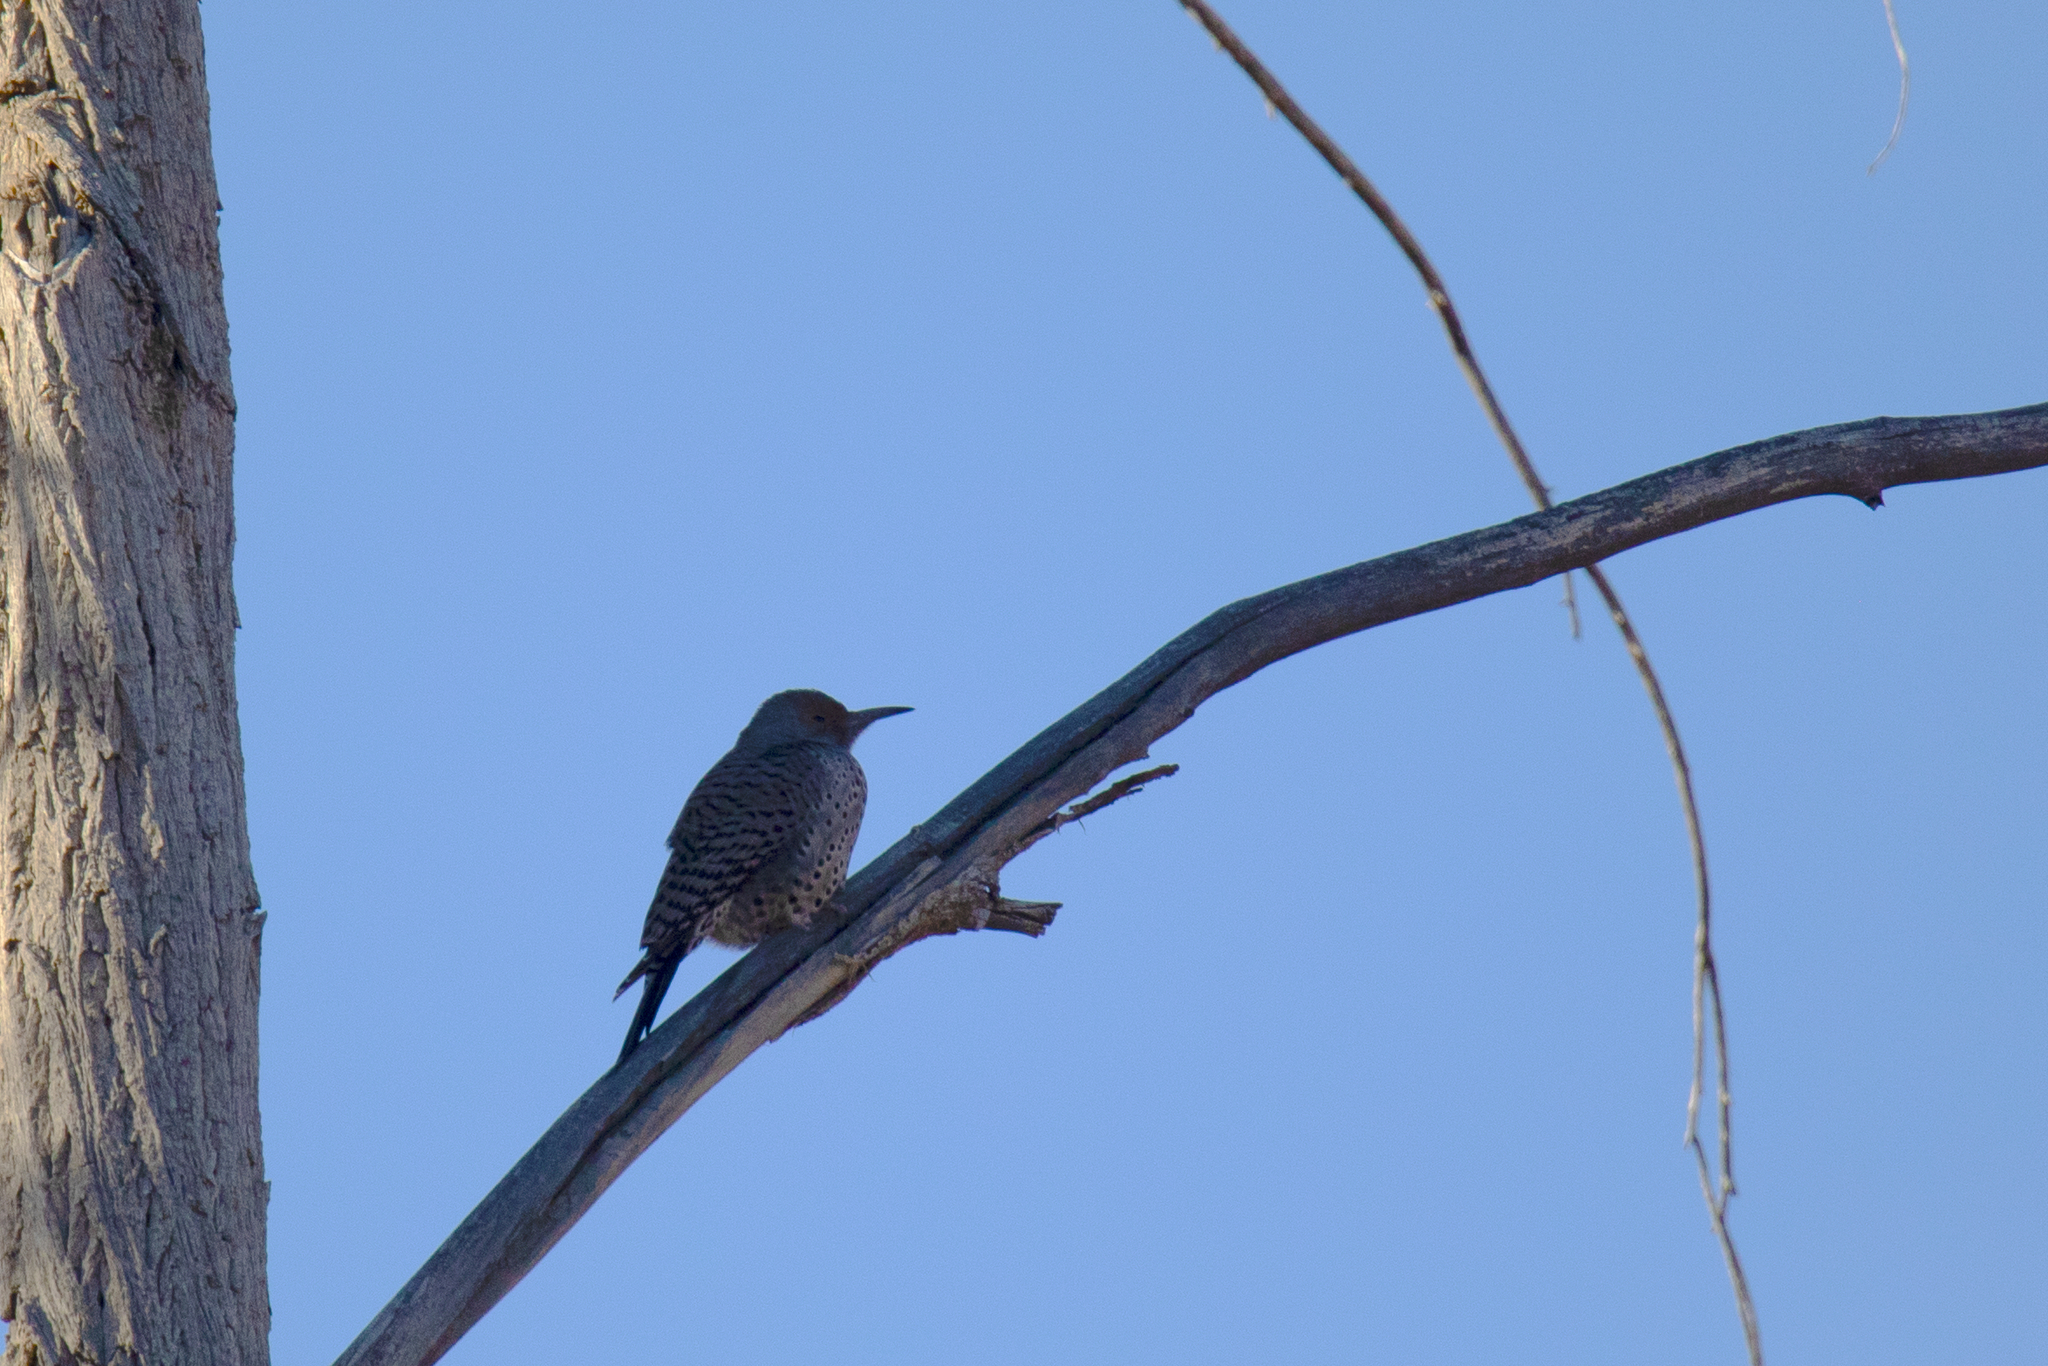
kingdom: Animalia
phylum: Chordata
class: Aves
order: Piciformes
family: Picidae
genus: Colaptes
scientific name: Colaptes auratus
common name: Northern flicker
